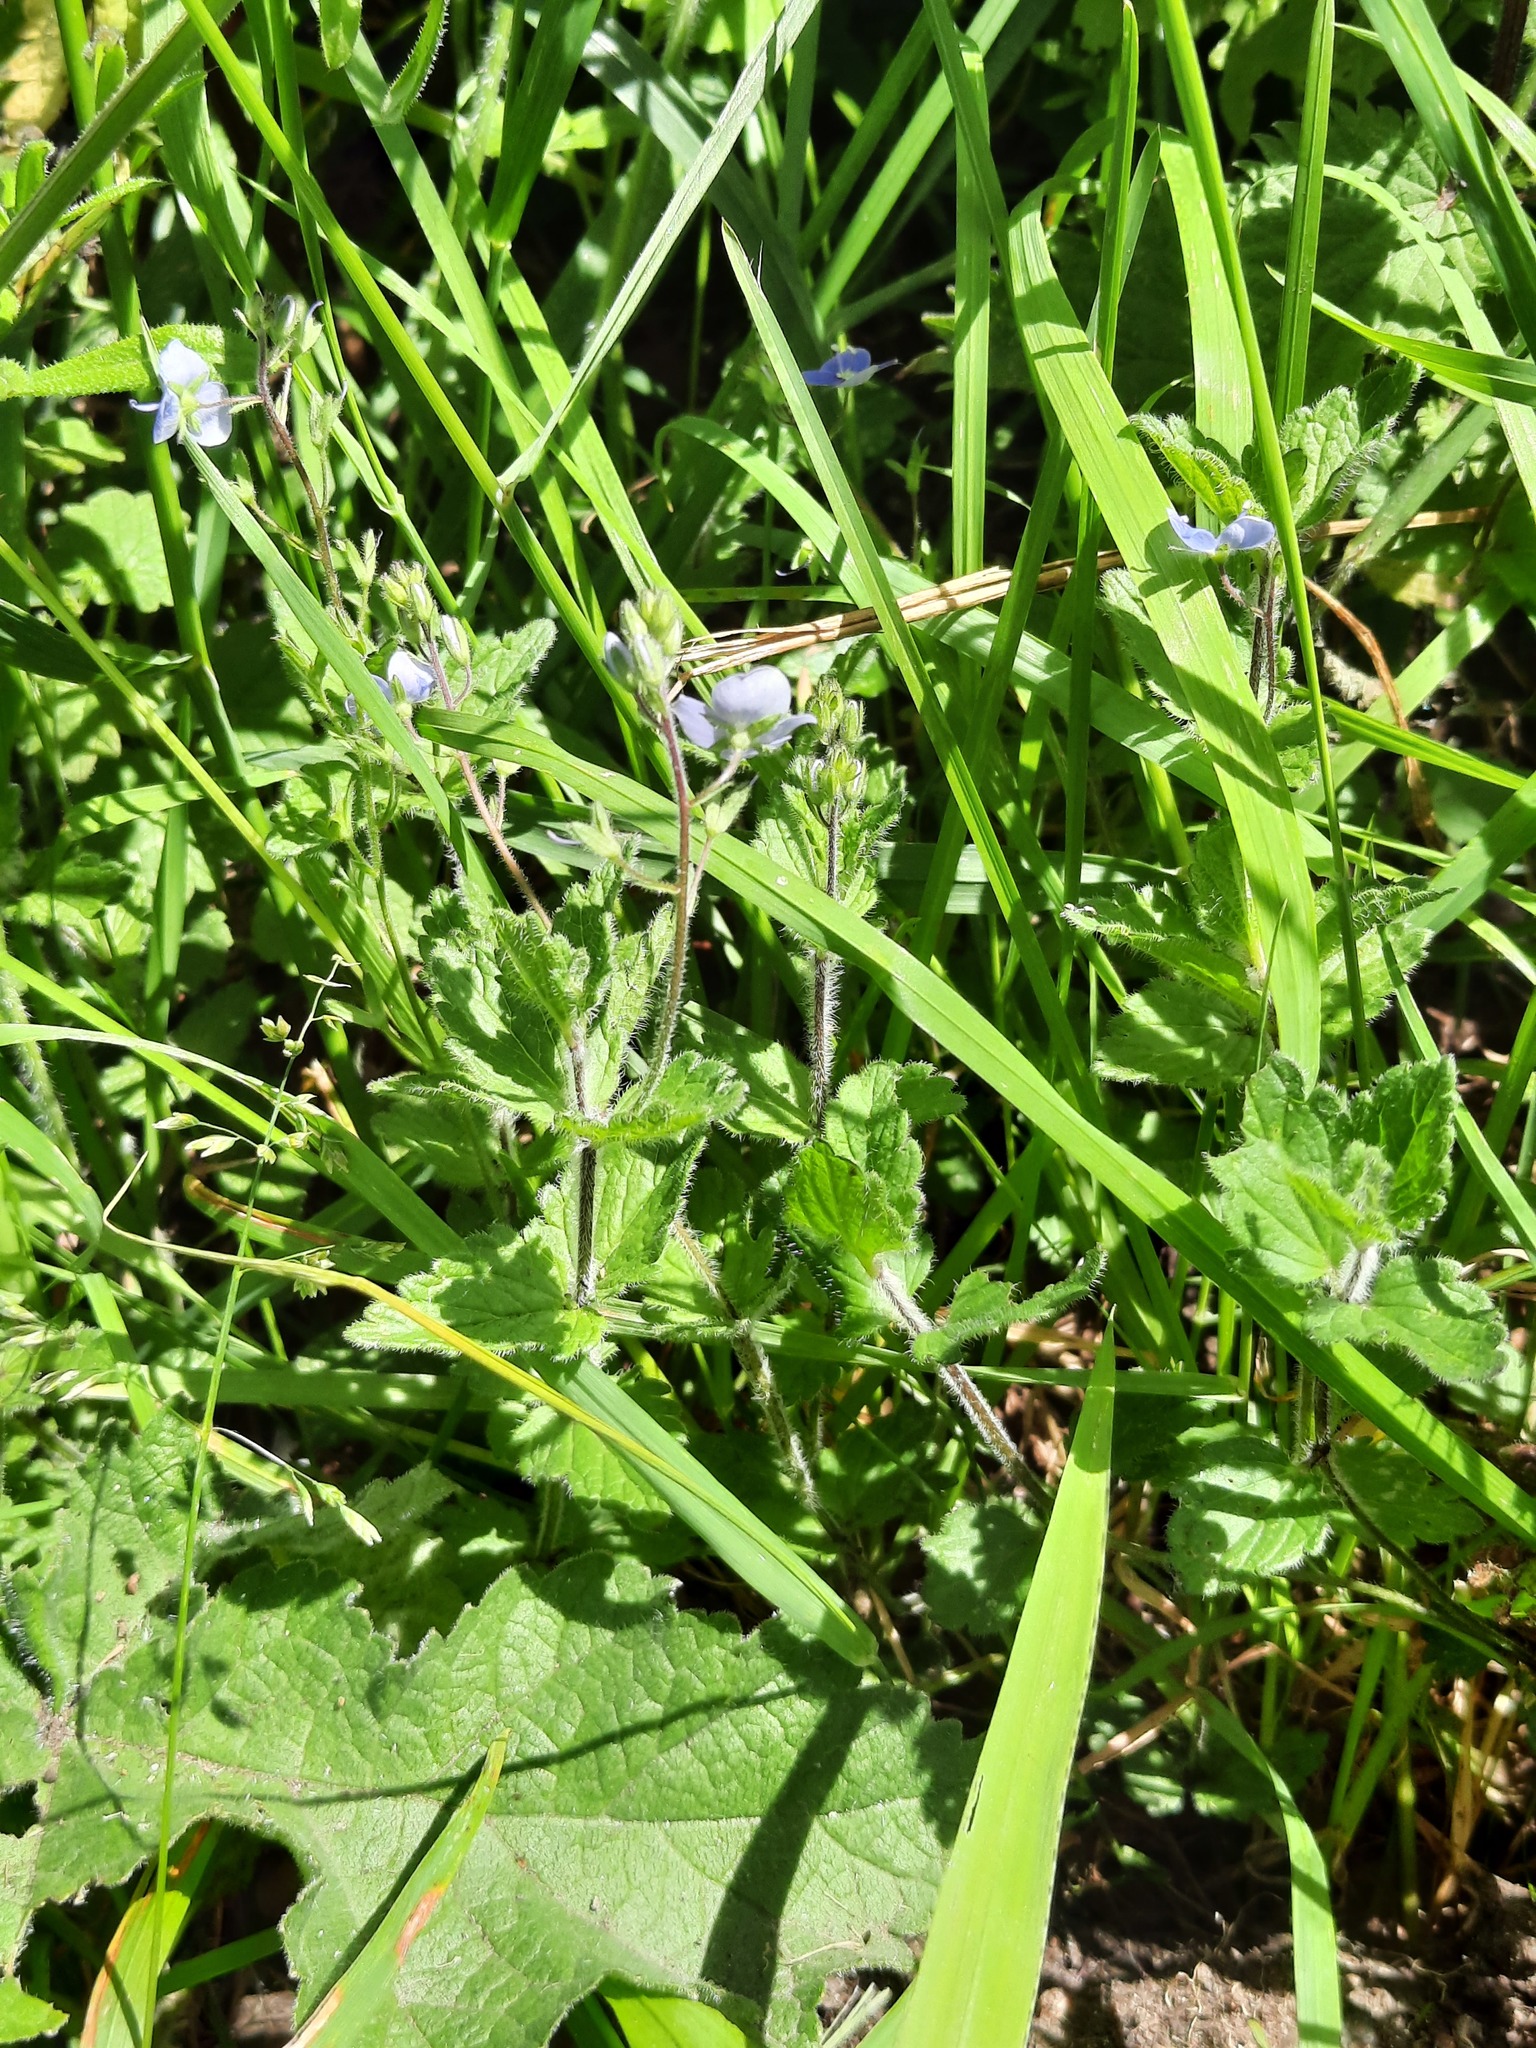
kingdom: Plantae
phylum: Tracheophyta
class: Magnoliopsida
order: Lamiales
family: Plantaginaceae
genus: Veronica
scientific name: Veronica chamaedrys
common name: Germander speedwell
